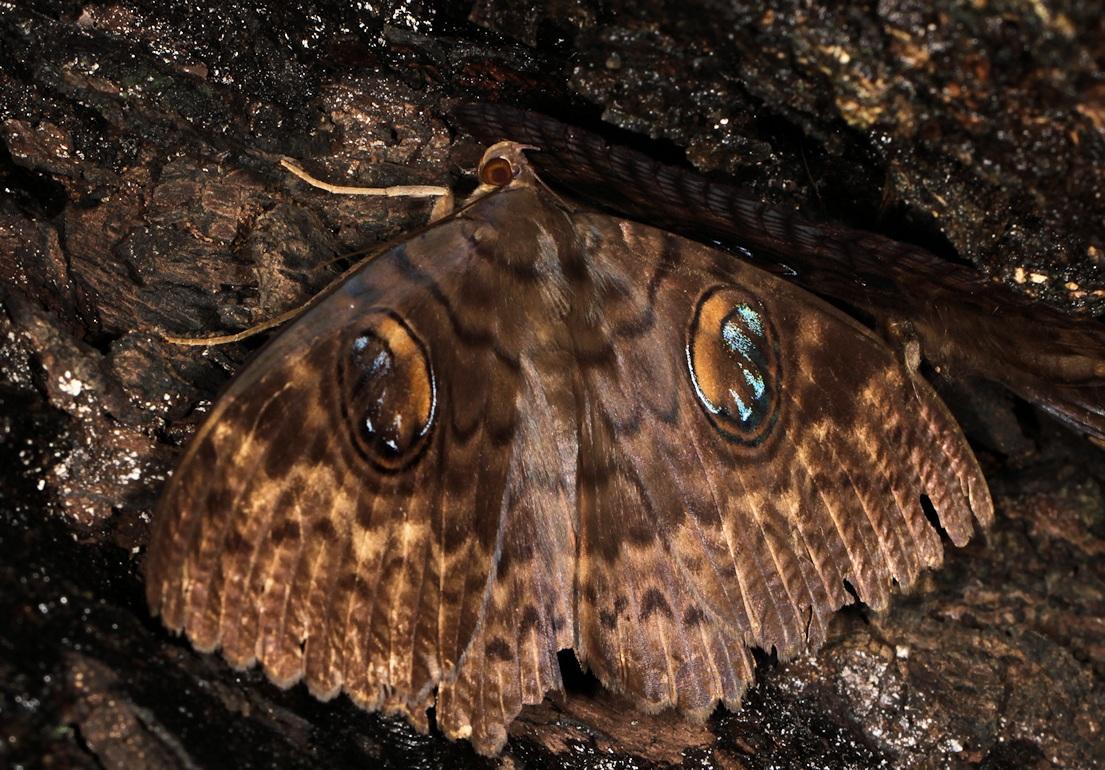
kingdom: Animalia
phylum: Arthropoda
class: Insecta
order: Lepidoptera
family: Erebidae
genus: Erebus
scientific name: Erebus walkeri
